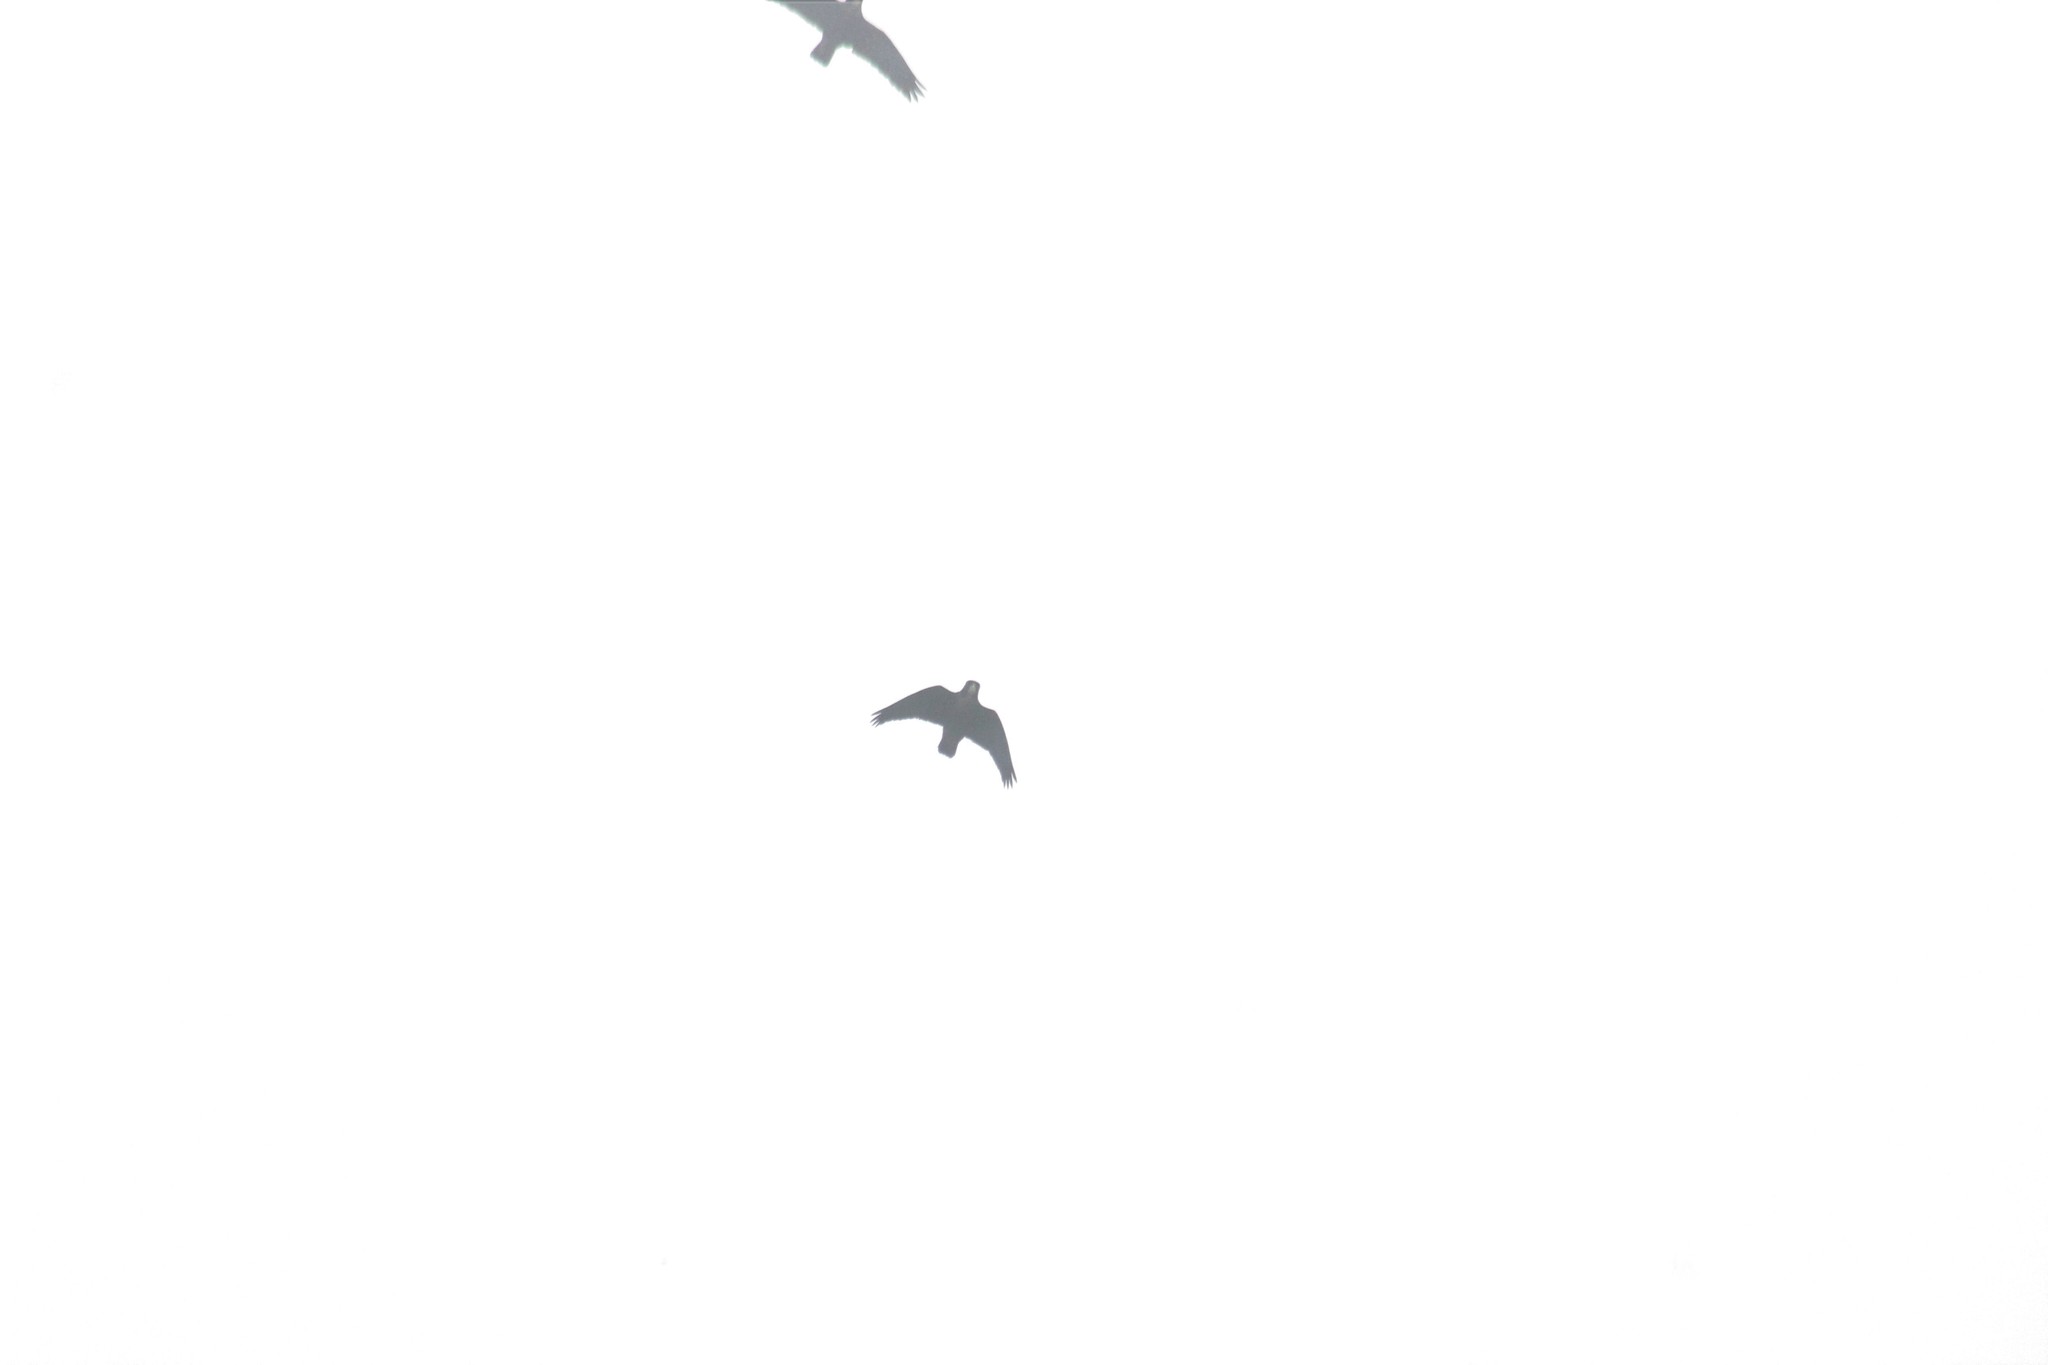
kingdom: Animalia
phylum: Chordata
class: Aves
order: Psittaciformes
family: Psittacidae
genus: Pionus
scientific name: Pionus chalcopterus
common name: Bronze-winged parrot
